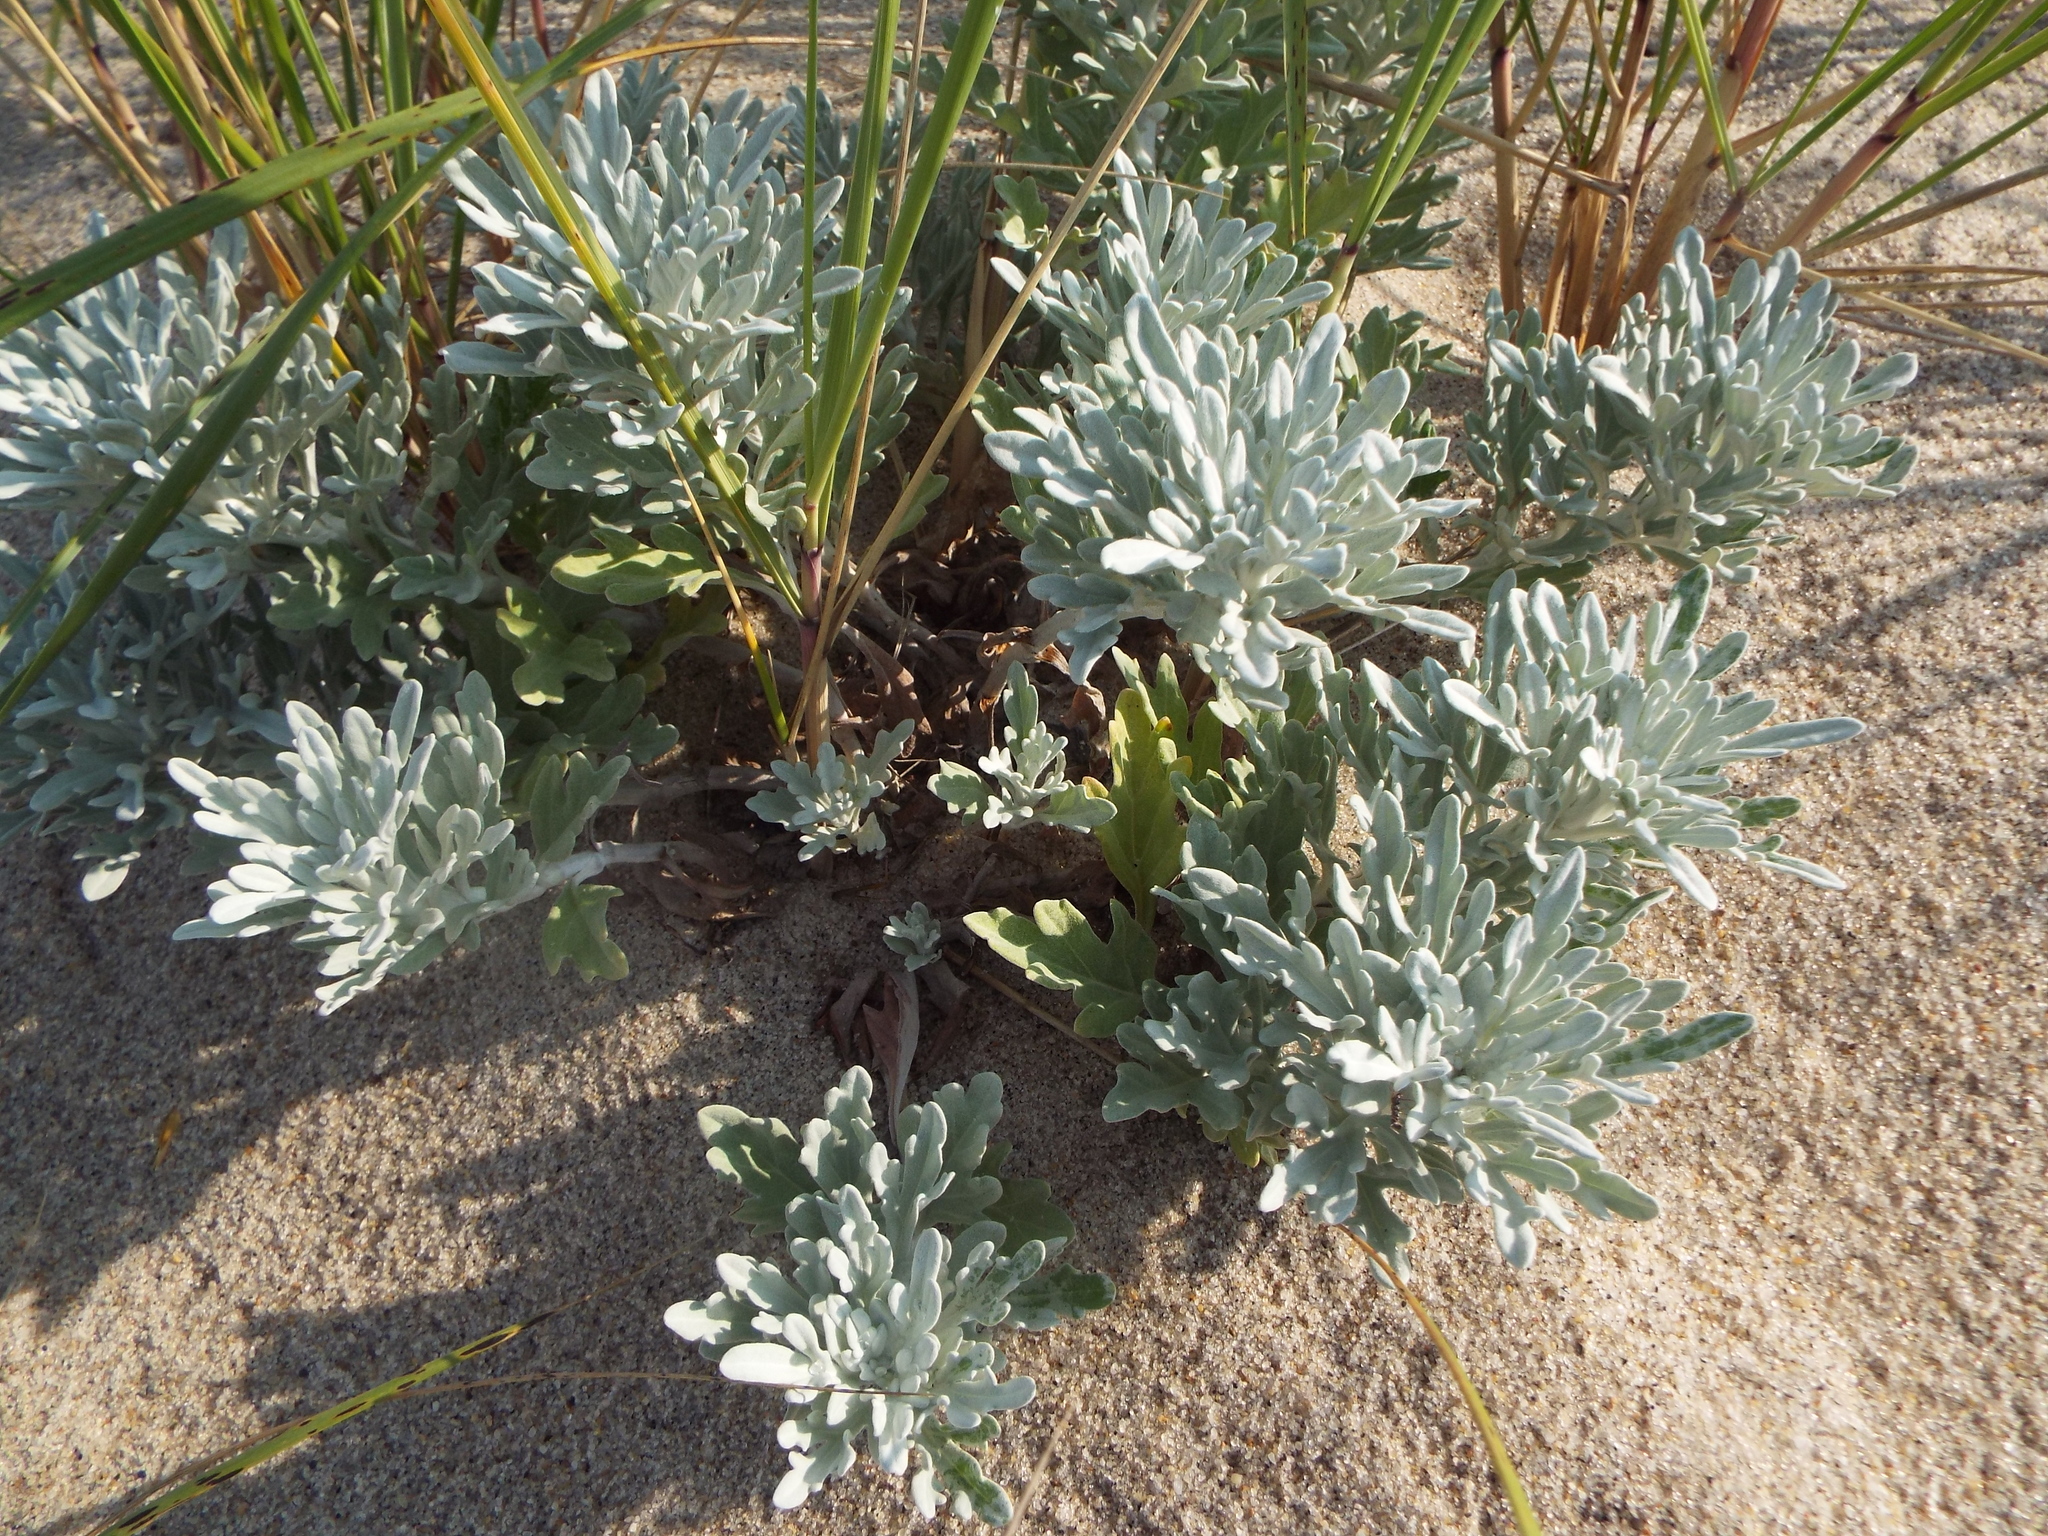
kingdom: Plantae
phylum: Tracheophyta
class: Magnoliopsida
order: Asterales
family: Asteraceae
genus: Artemisia
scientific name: Artemisia stelleriana
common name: Beach wormwood
